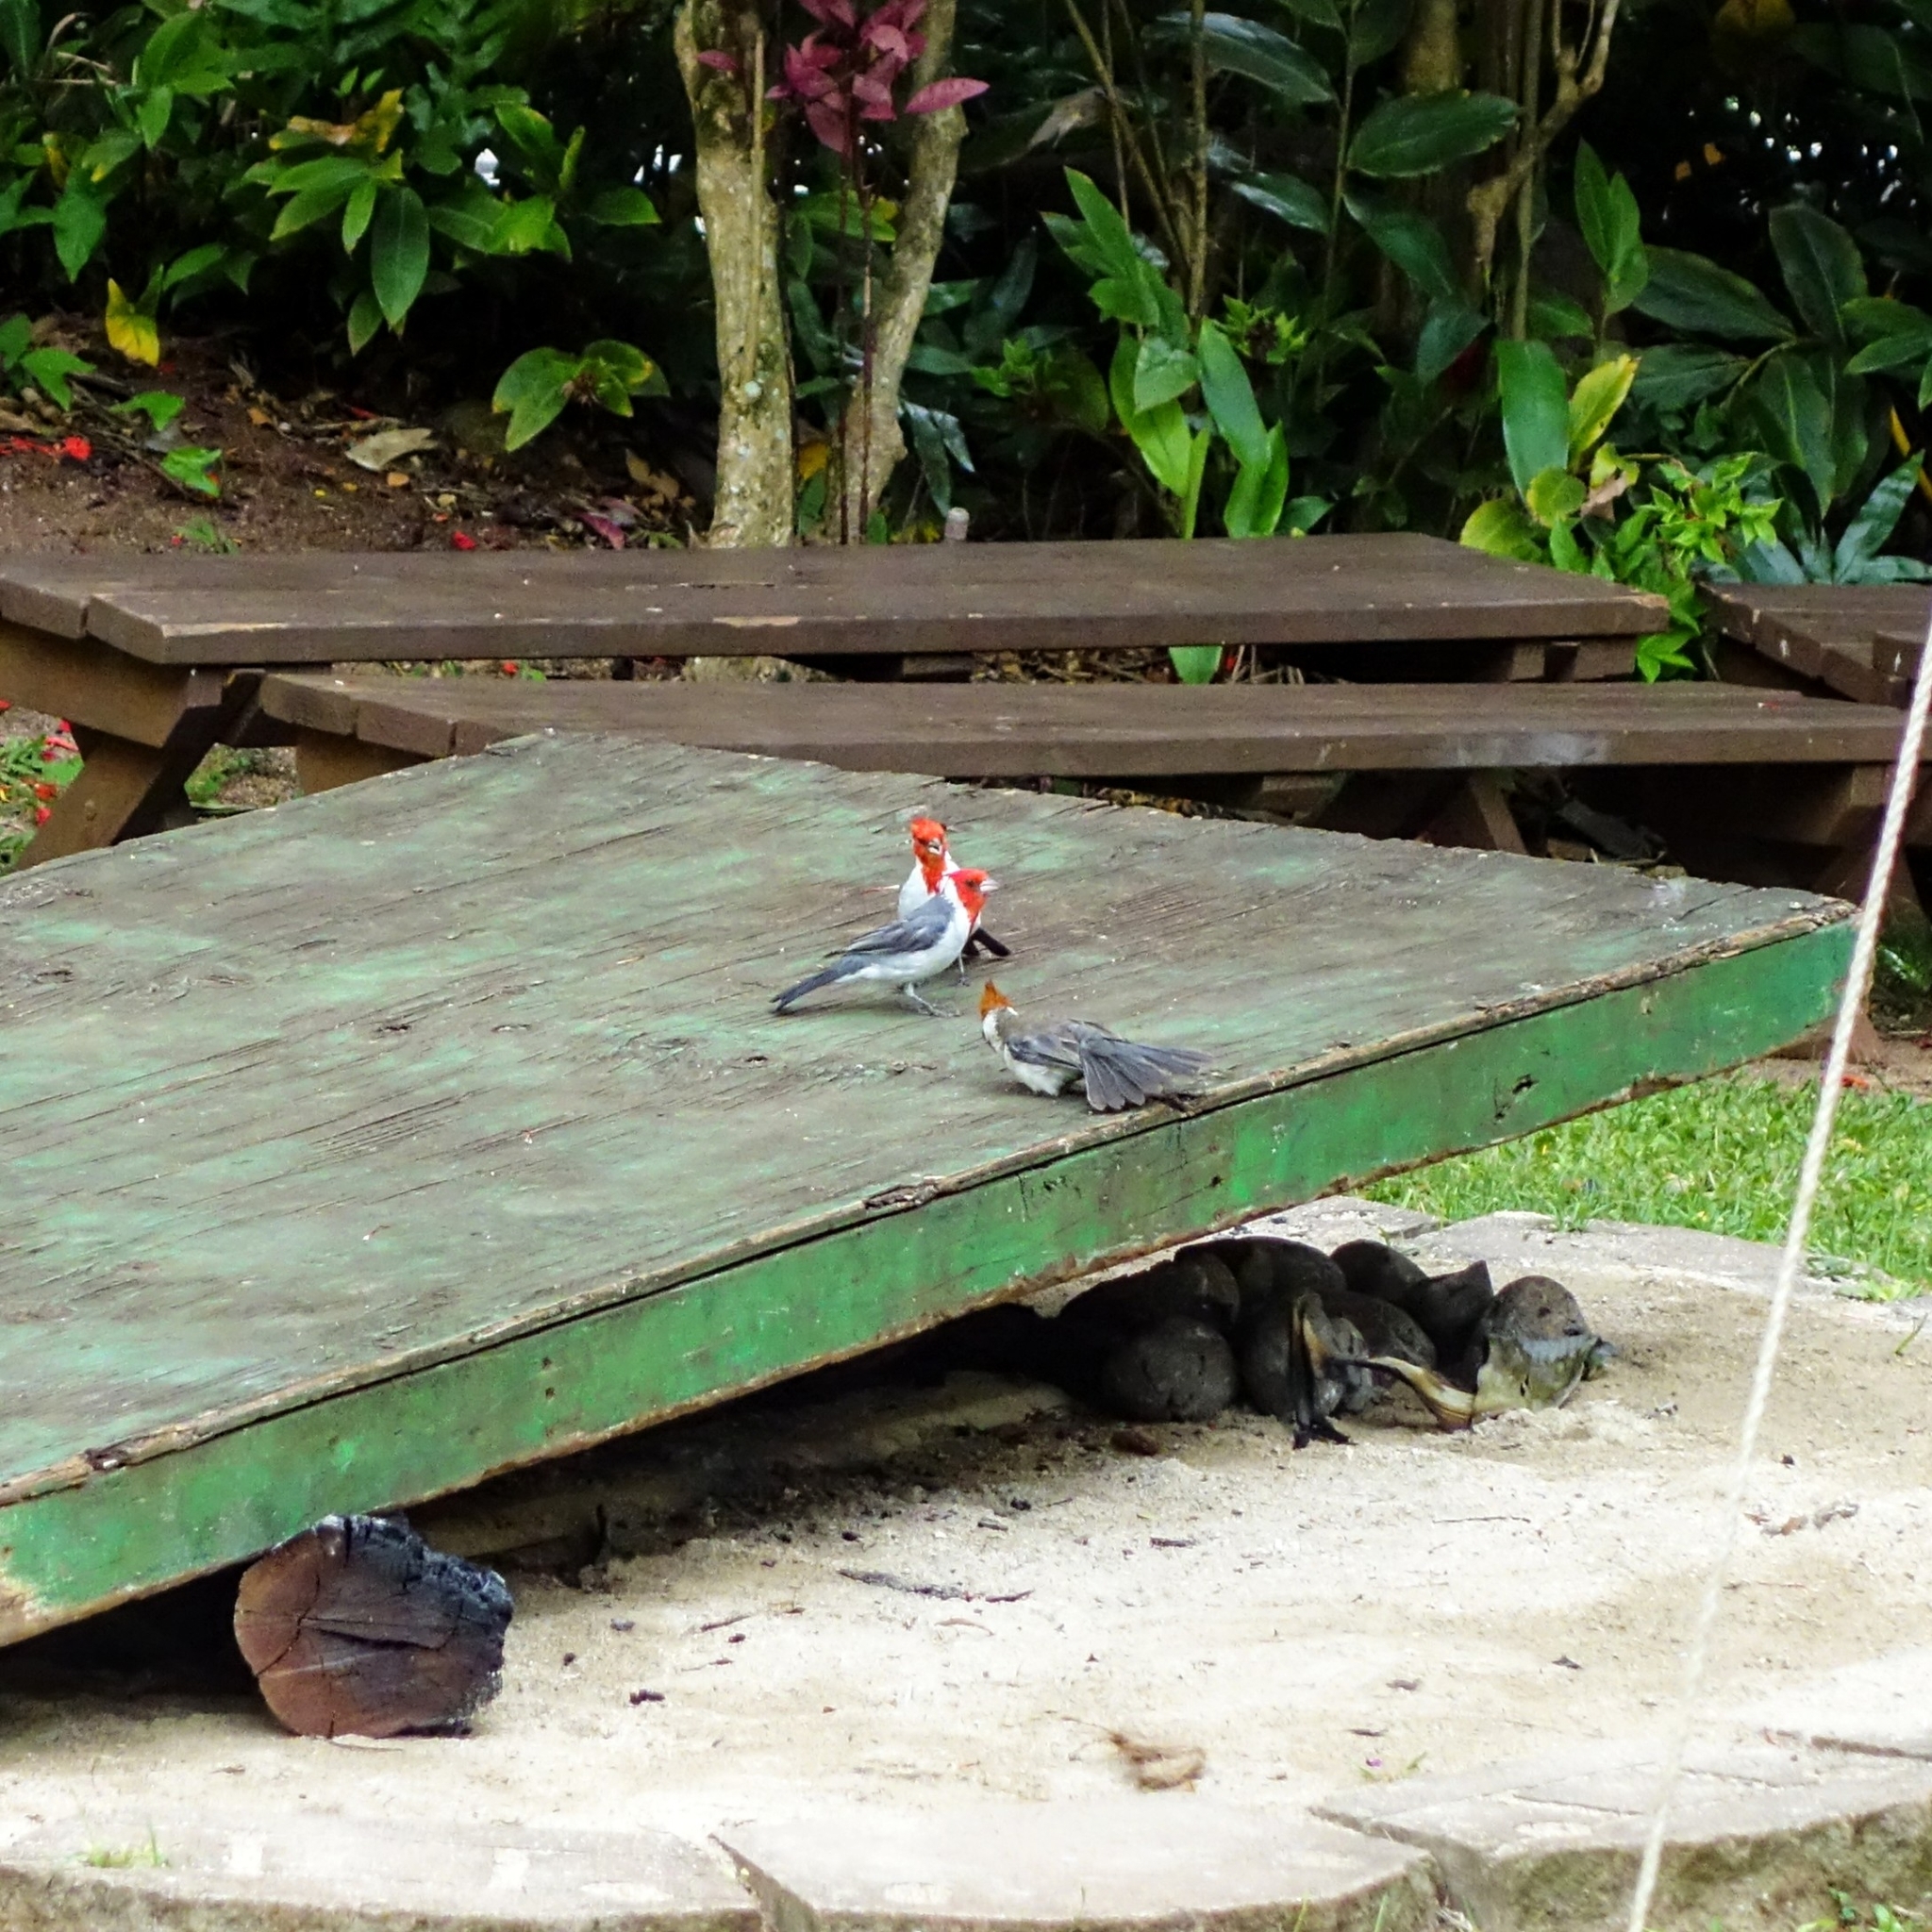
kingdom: Animalia
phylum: Chordata
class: Aves
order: Passeriformes
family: Thraupidae
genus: Paroaria
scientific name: Paroaria coronata
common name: Red-crested cardinal
